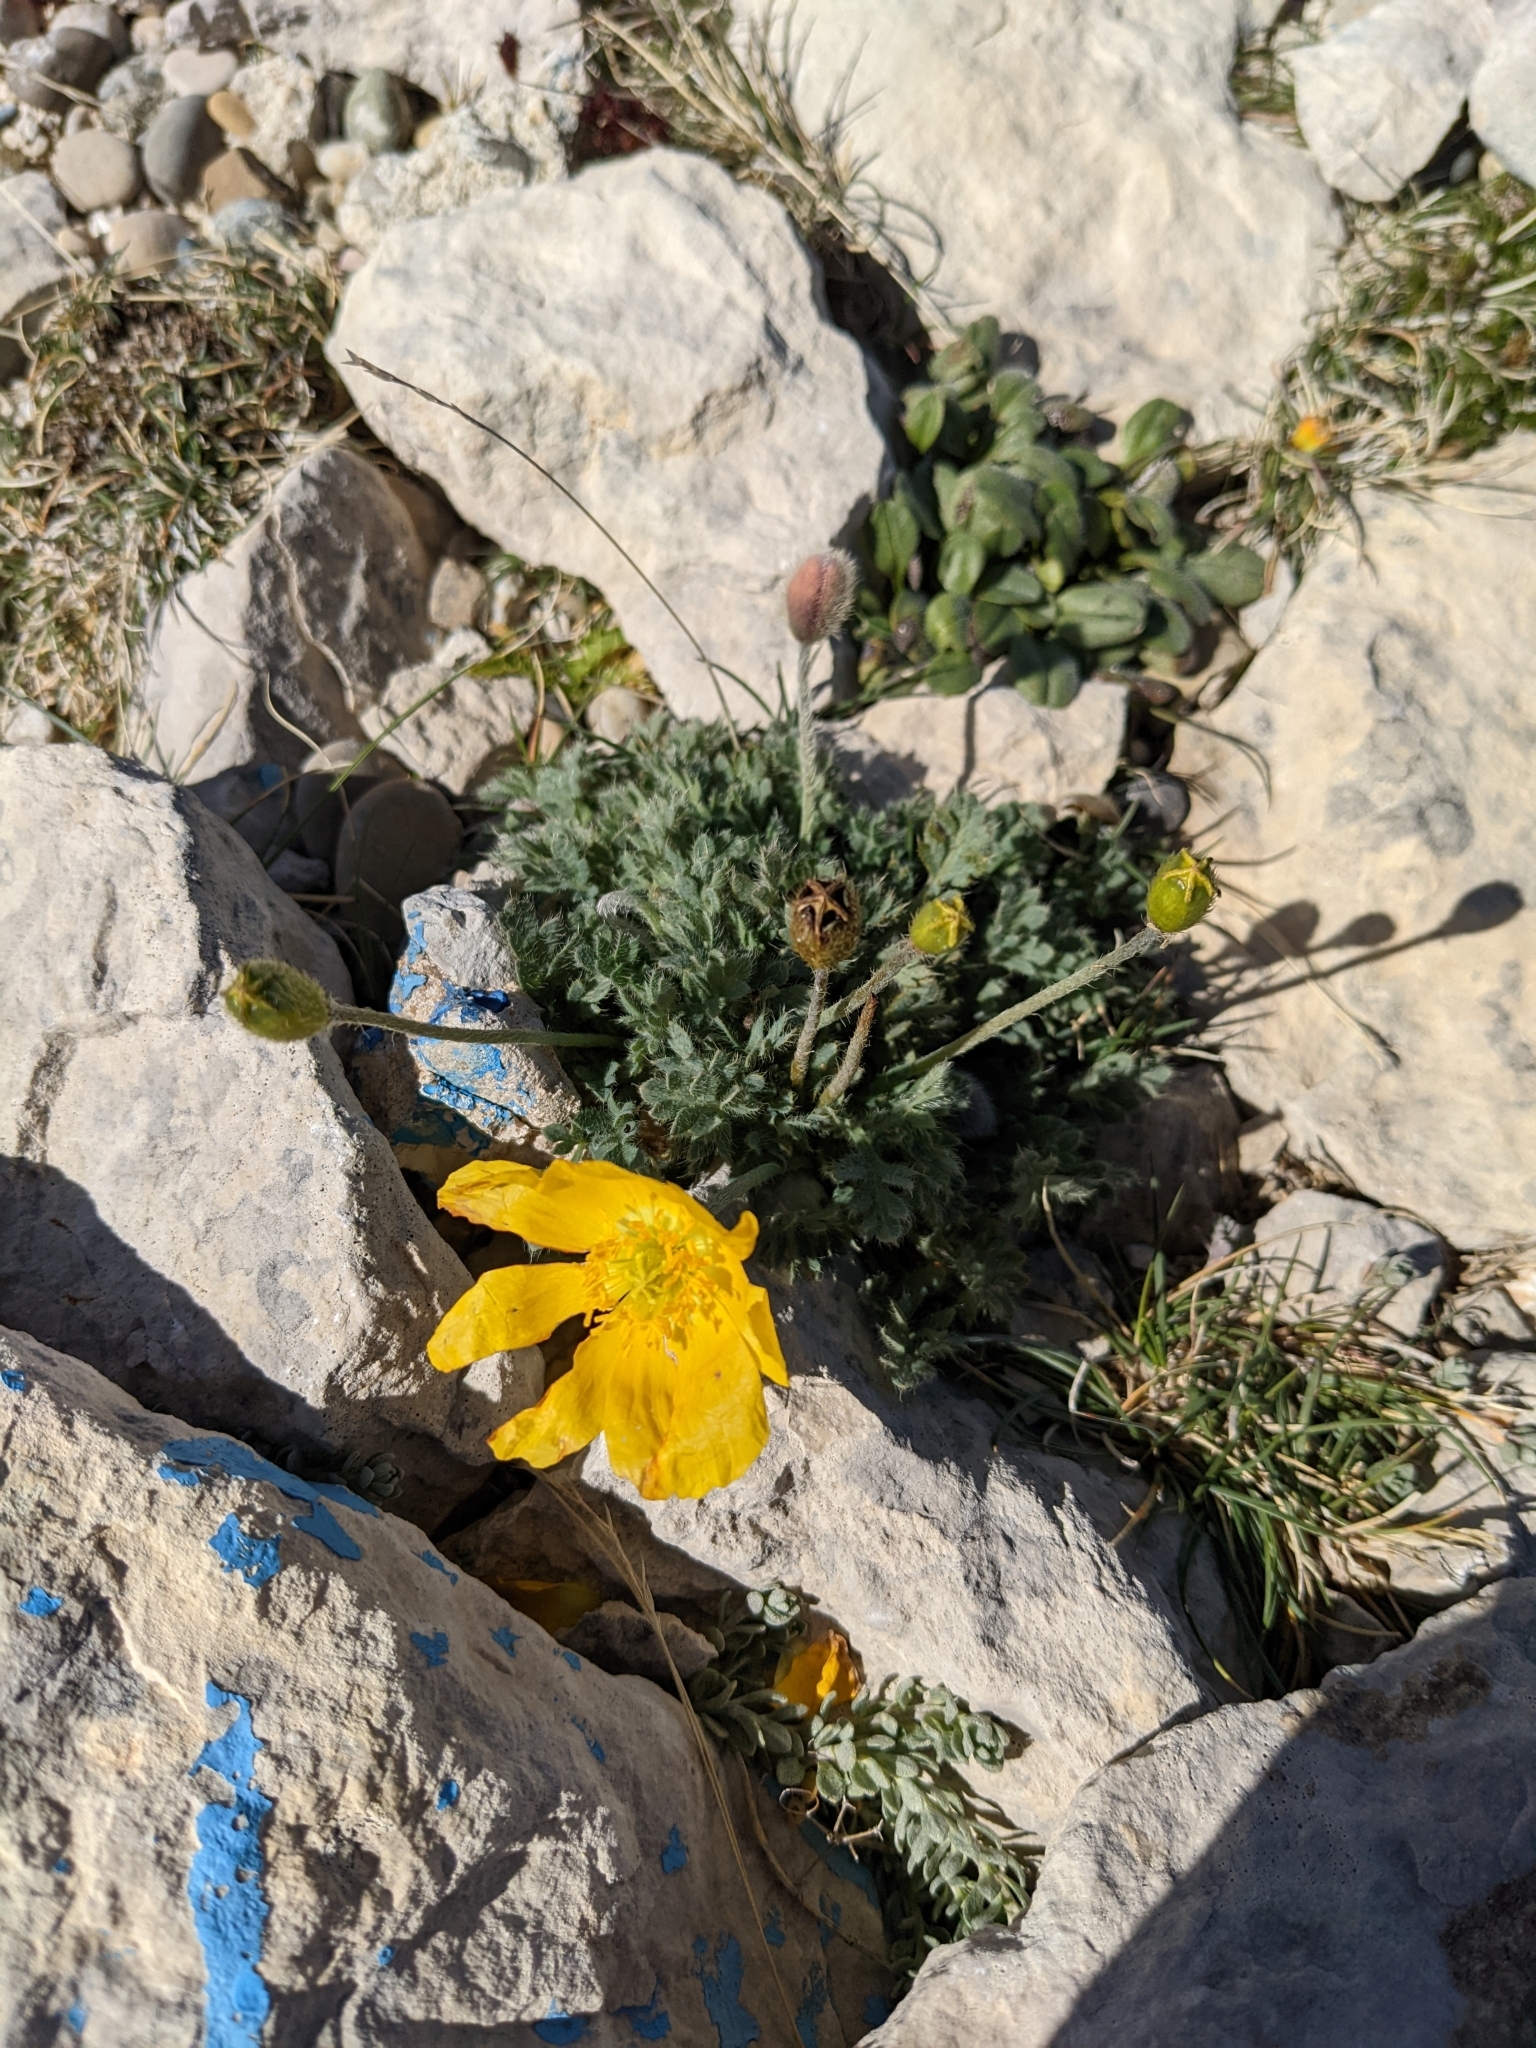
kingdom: Plantae
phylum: Tracheophyta
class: Magnoliopsida
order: Ranunculales
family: Papaveraceae
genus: Papaver
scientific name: Papaver alpinum
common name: Austrian poppy
